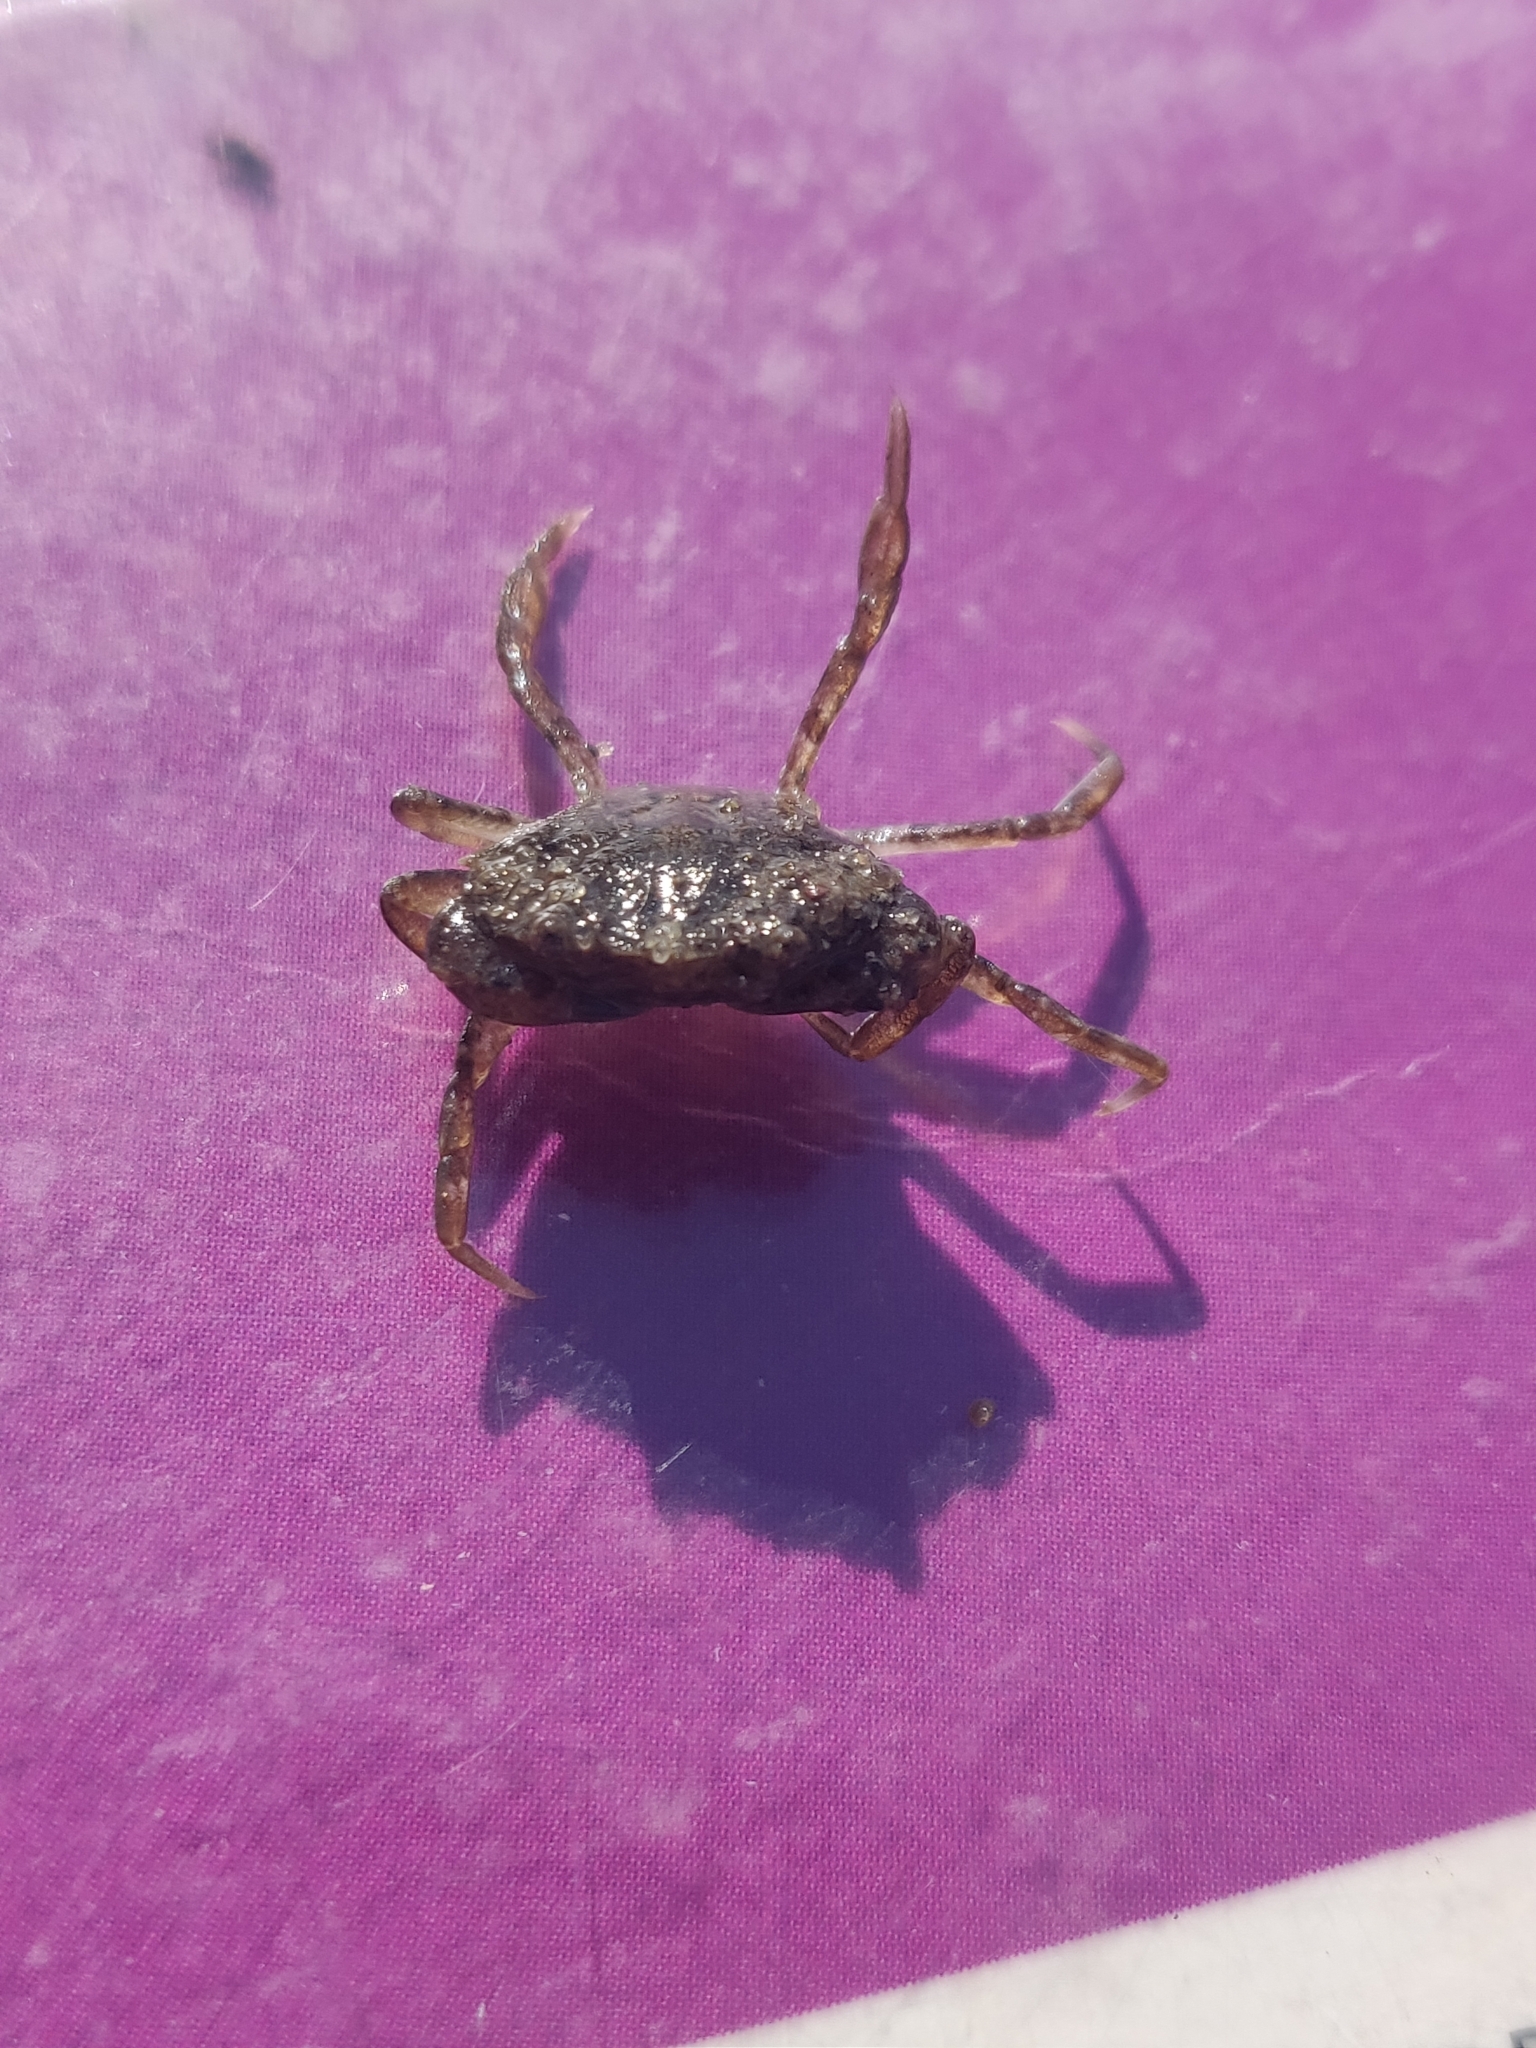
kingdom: Animalia
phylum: Arthropoda
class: Malacostraca
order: Decapoda
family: Carcinidae
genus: Carcinus
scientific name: Carcinus maenas
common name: European green crab
